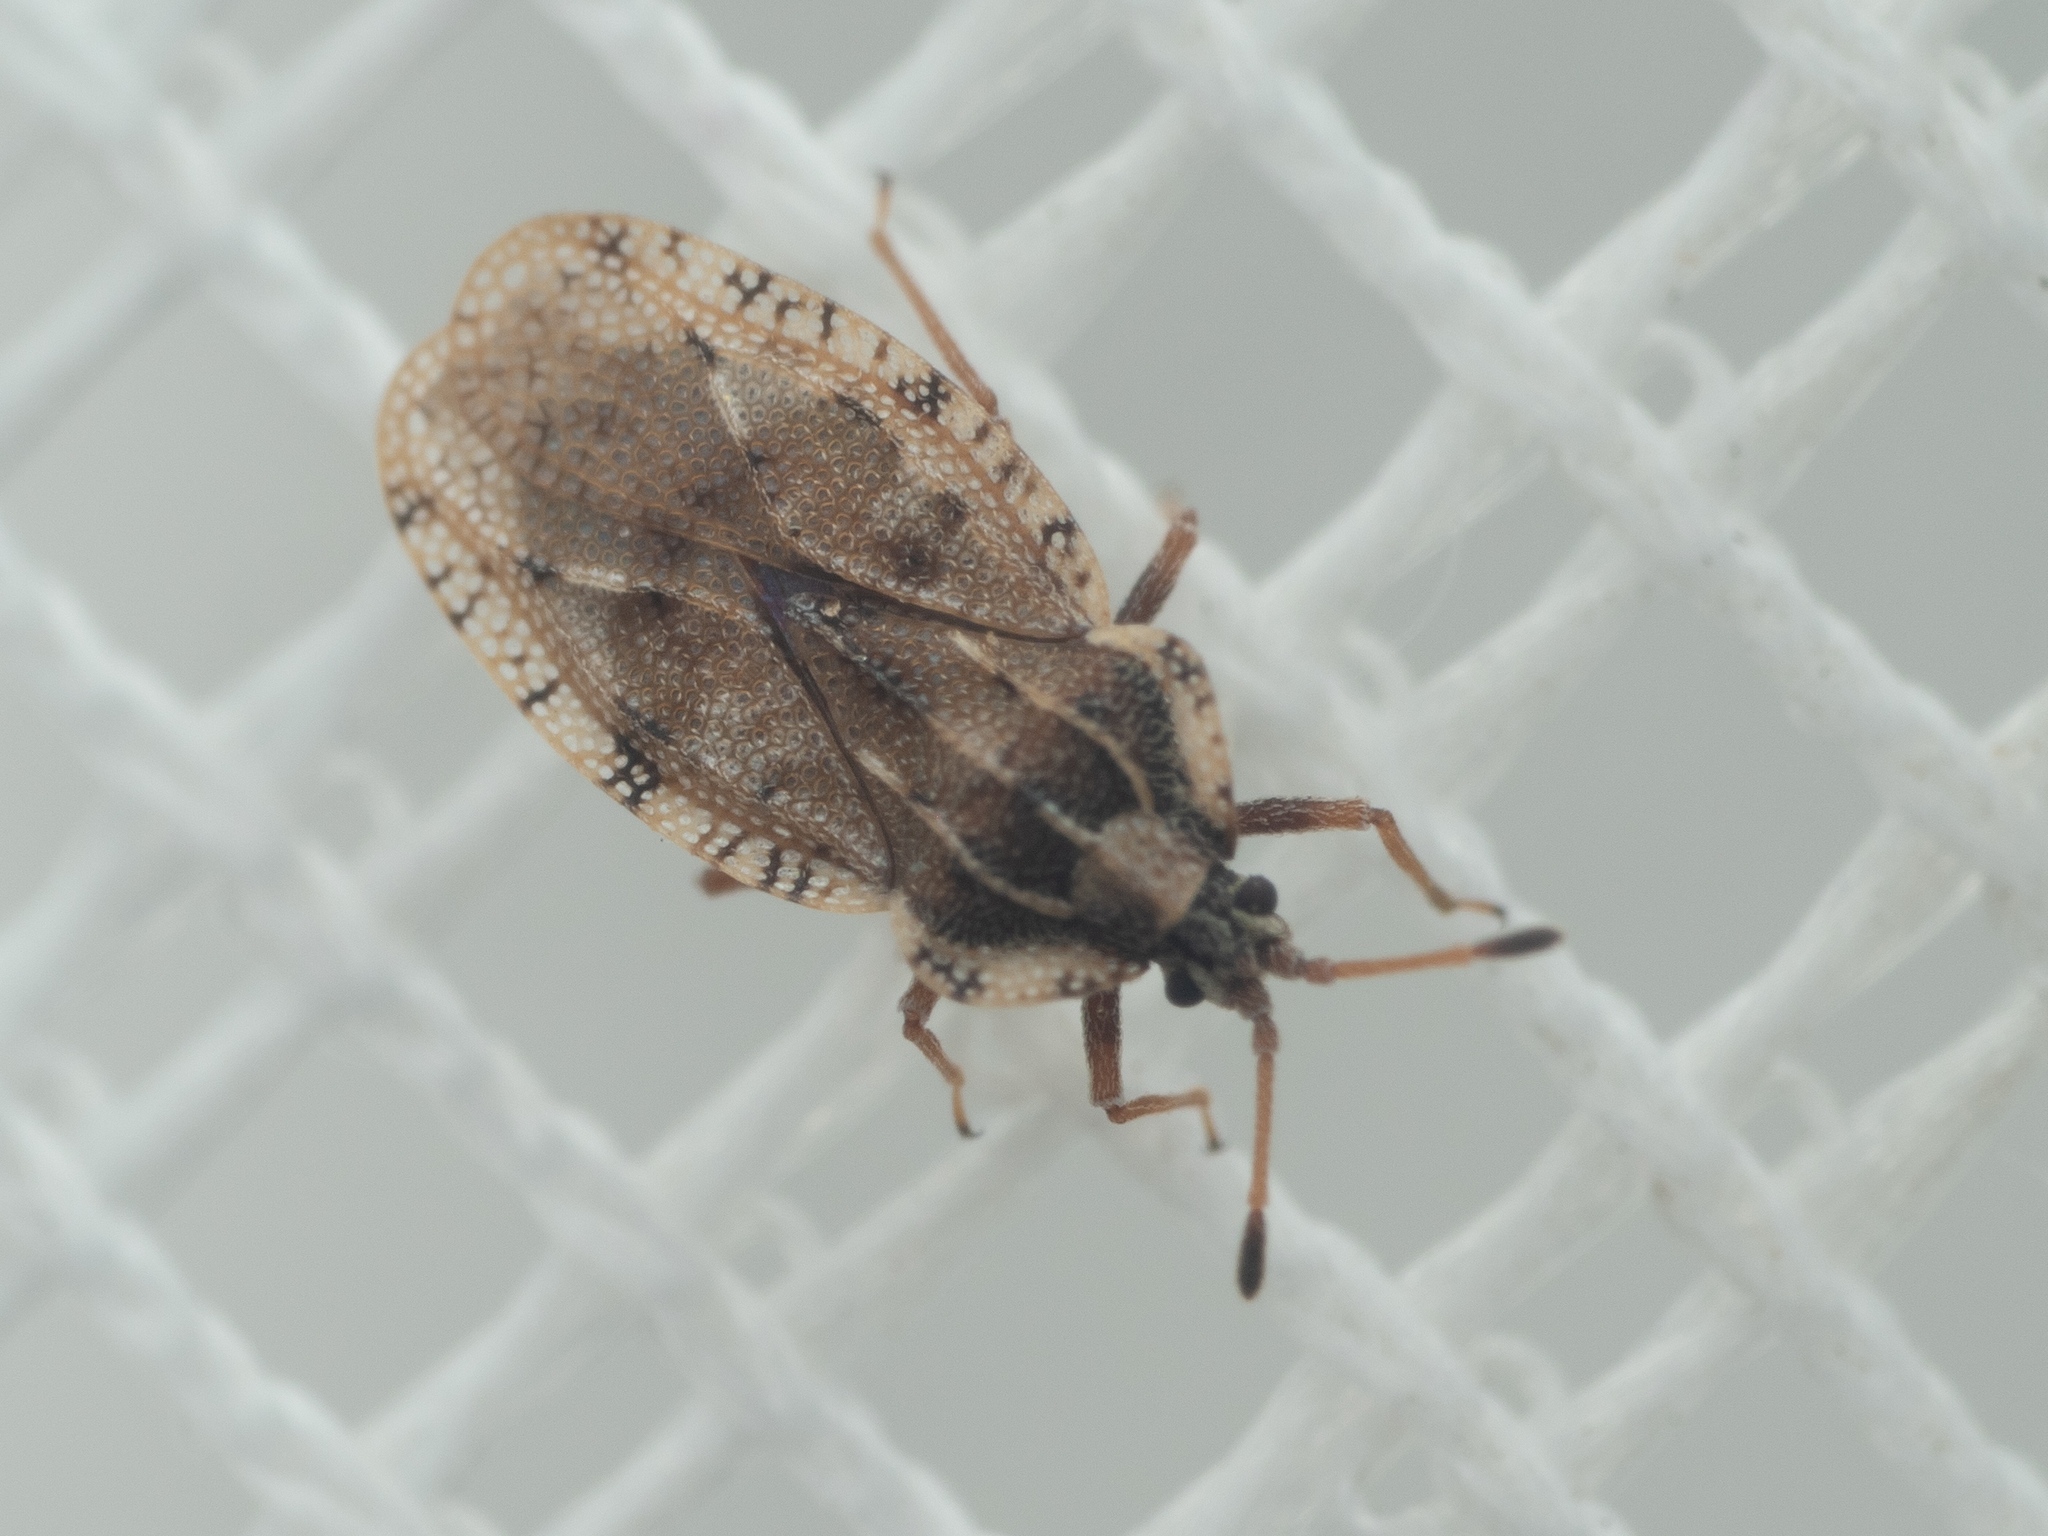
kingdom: Animalia
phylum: Arthropoda
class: Insecta
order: Hemiptera
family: Tingidae
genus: Tingis
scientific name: Tingis cardui
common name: Spear thistle lacebug
